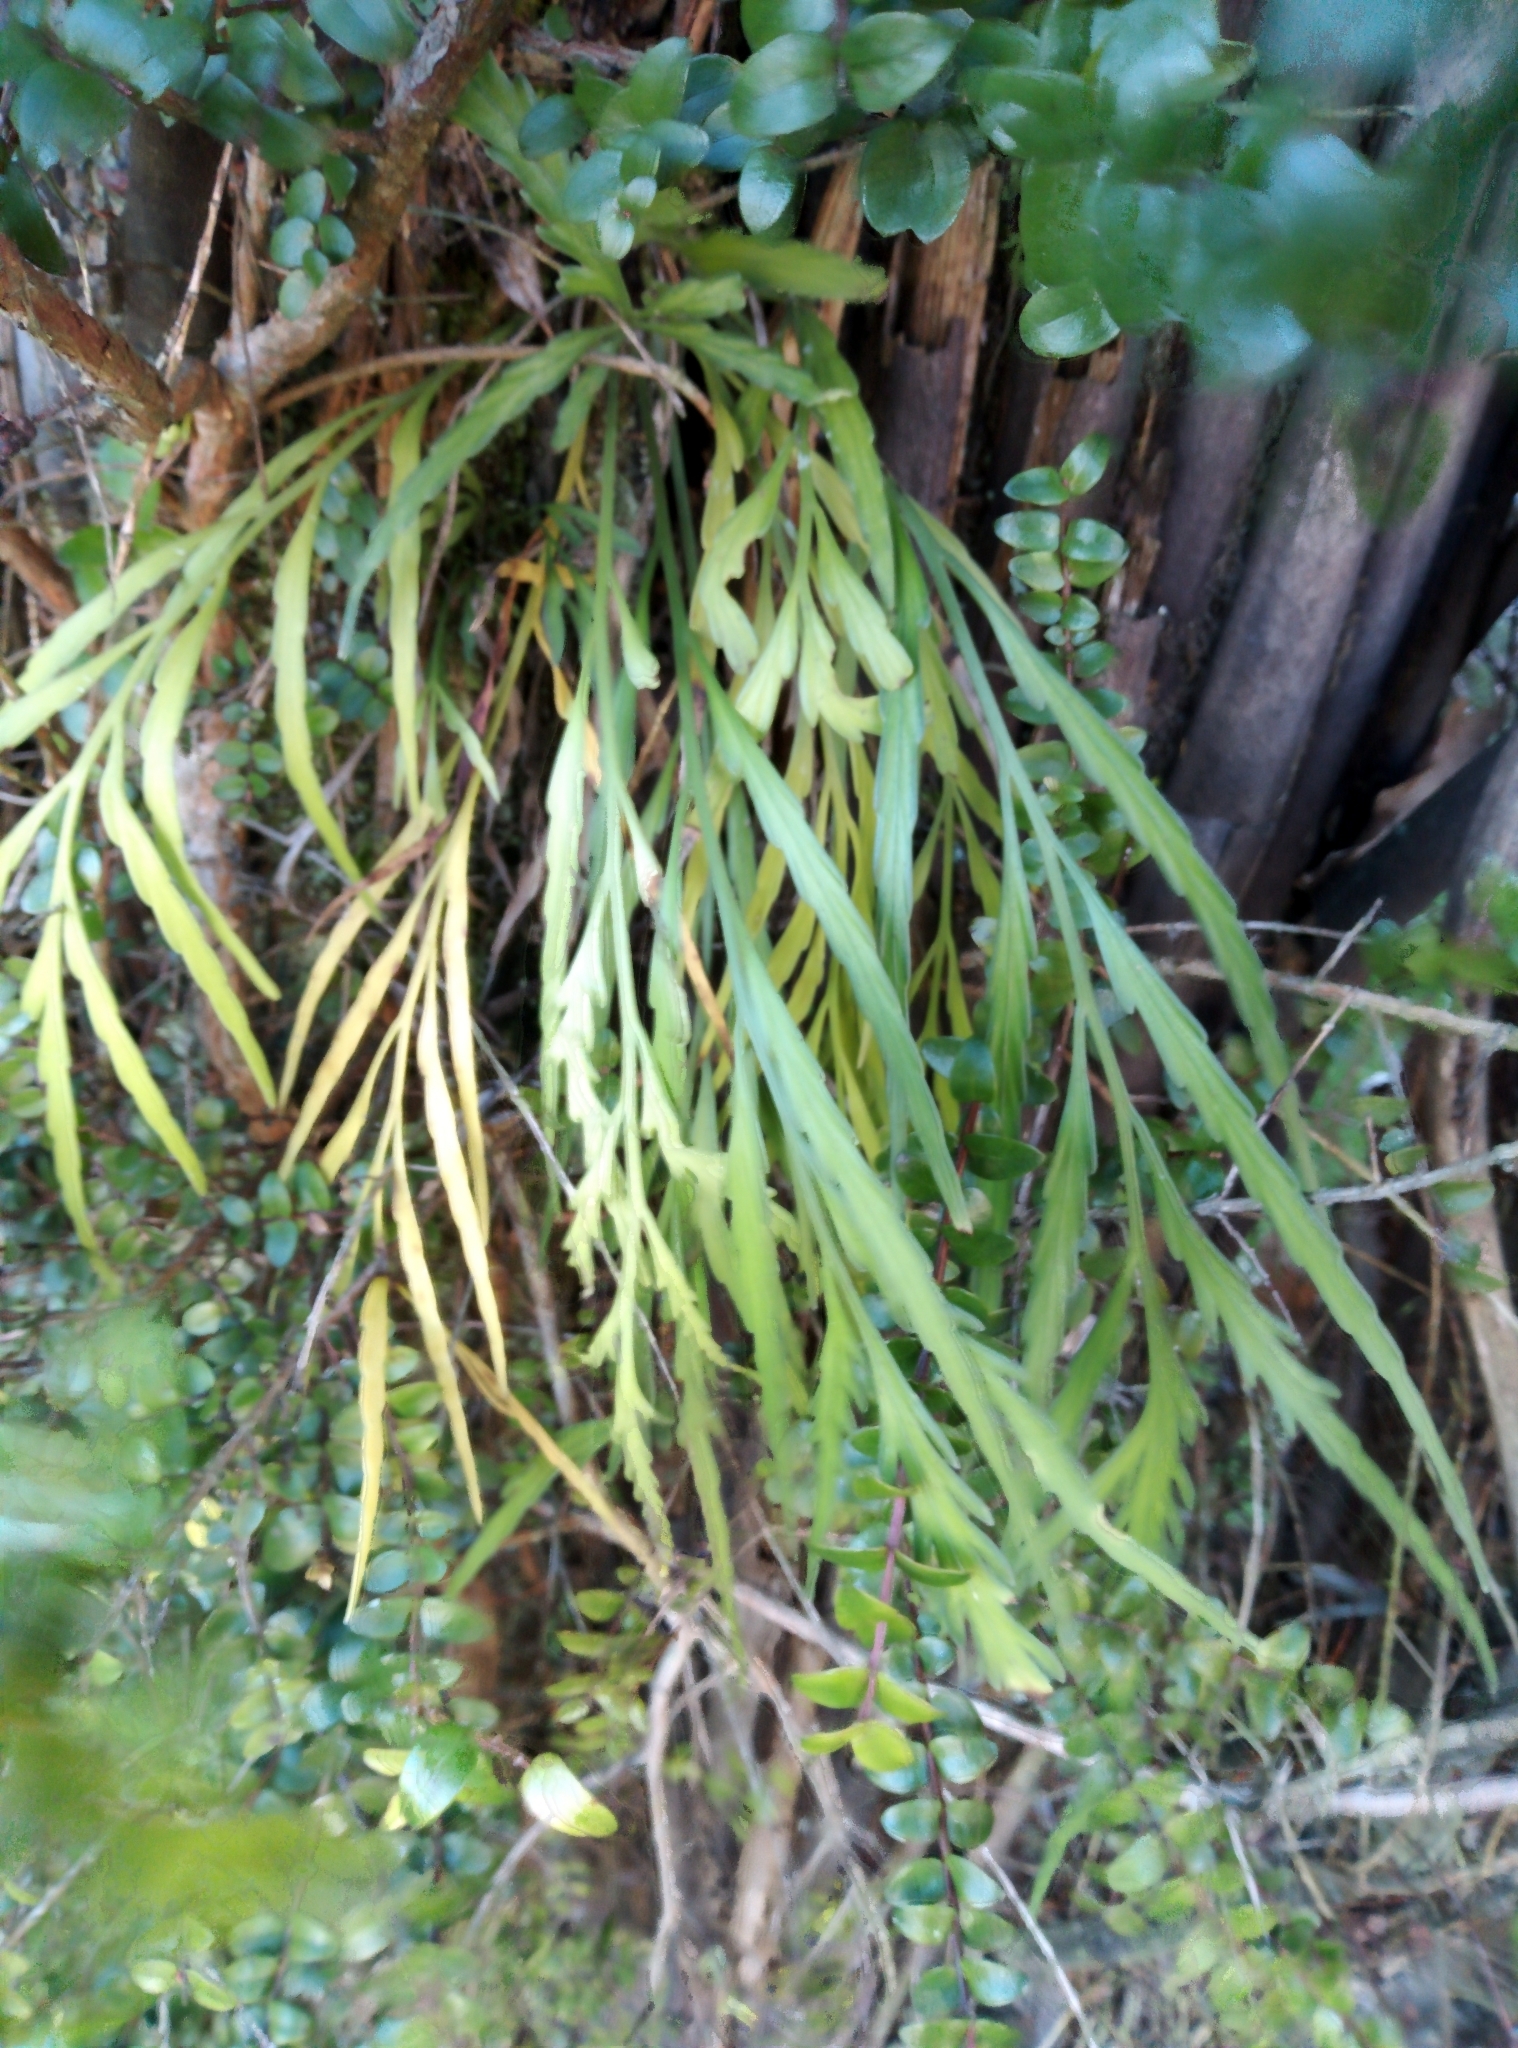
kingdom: Plantae
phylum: Tracheophyta
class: Polypodiopsida
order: Polypodiales
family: Aspleniaceae
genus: Asplenium
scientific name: Asplenium flaccidum
